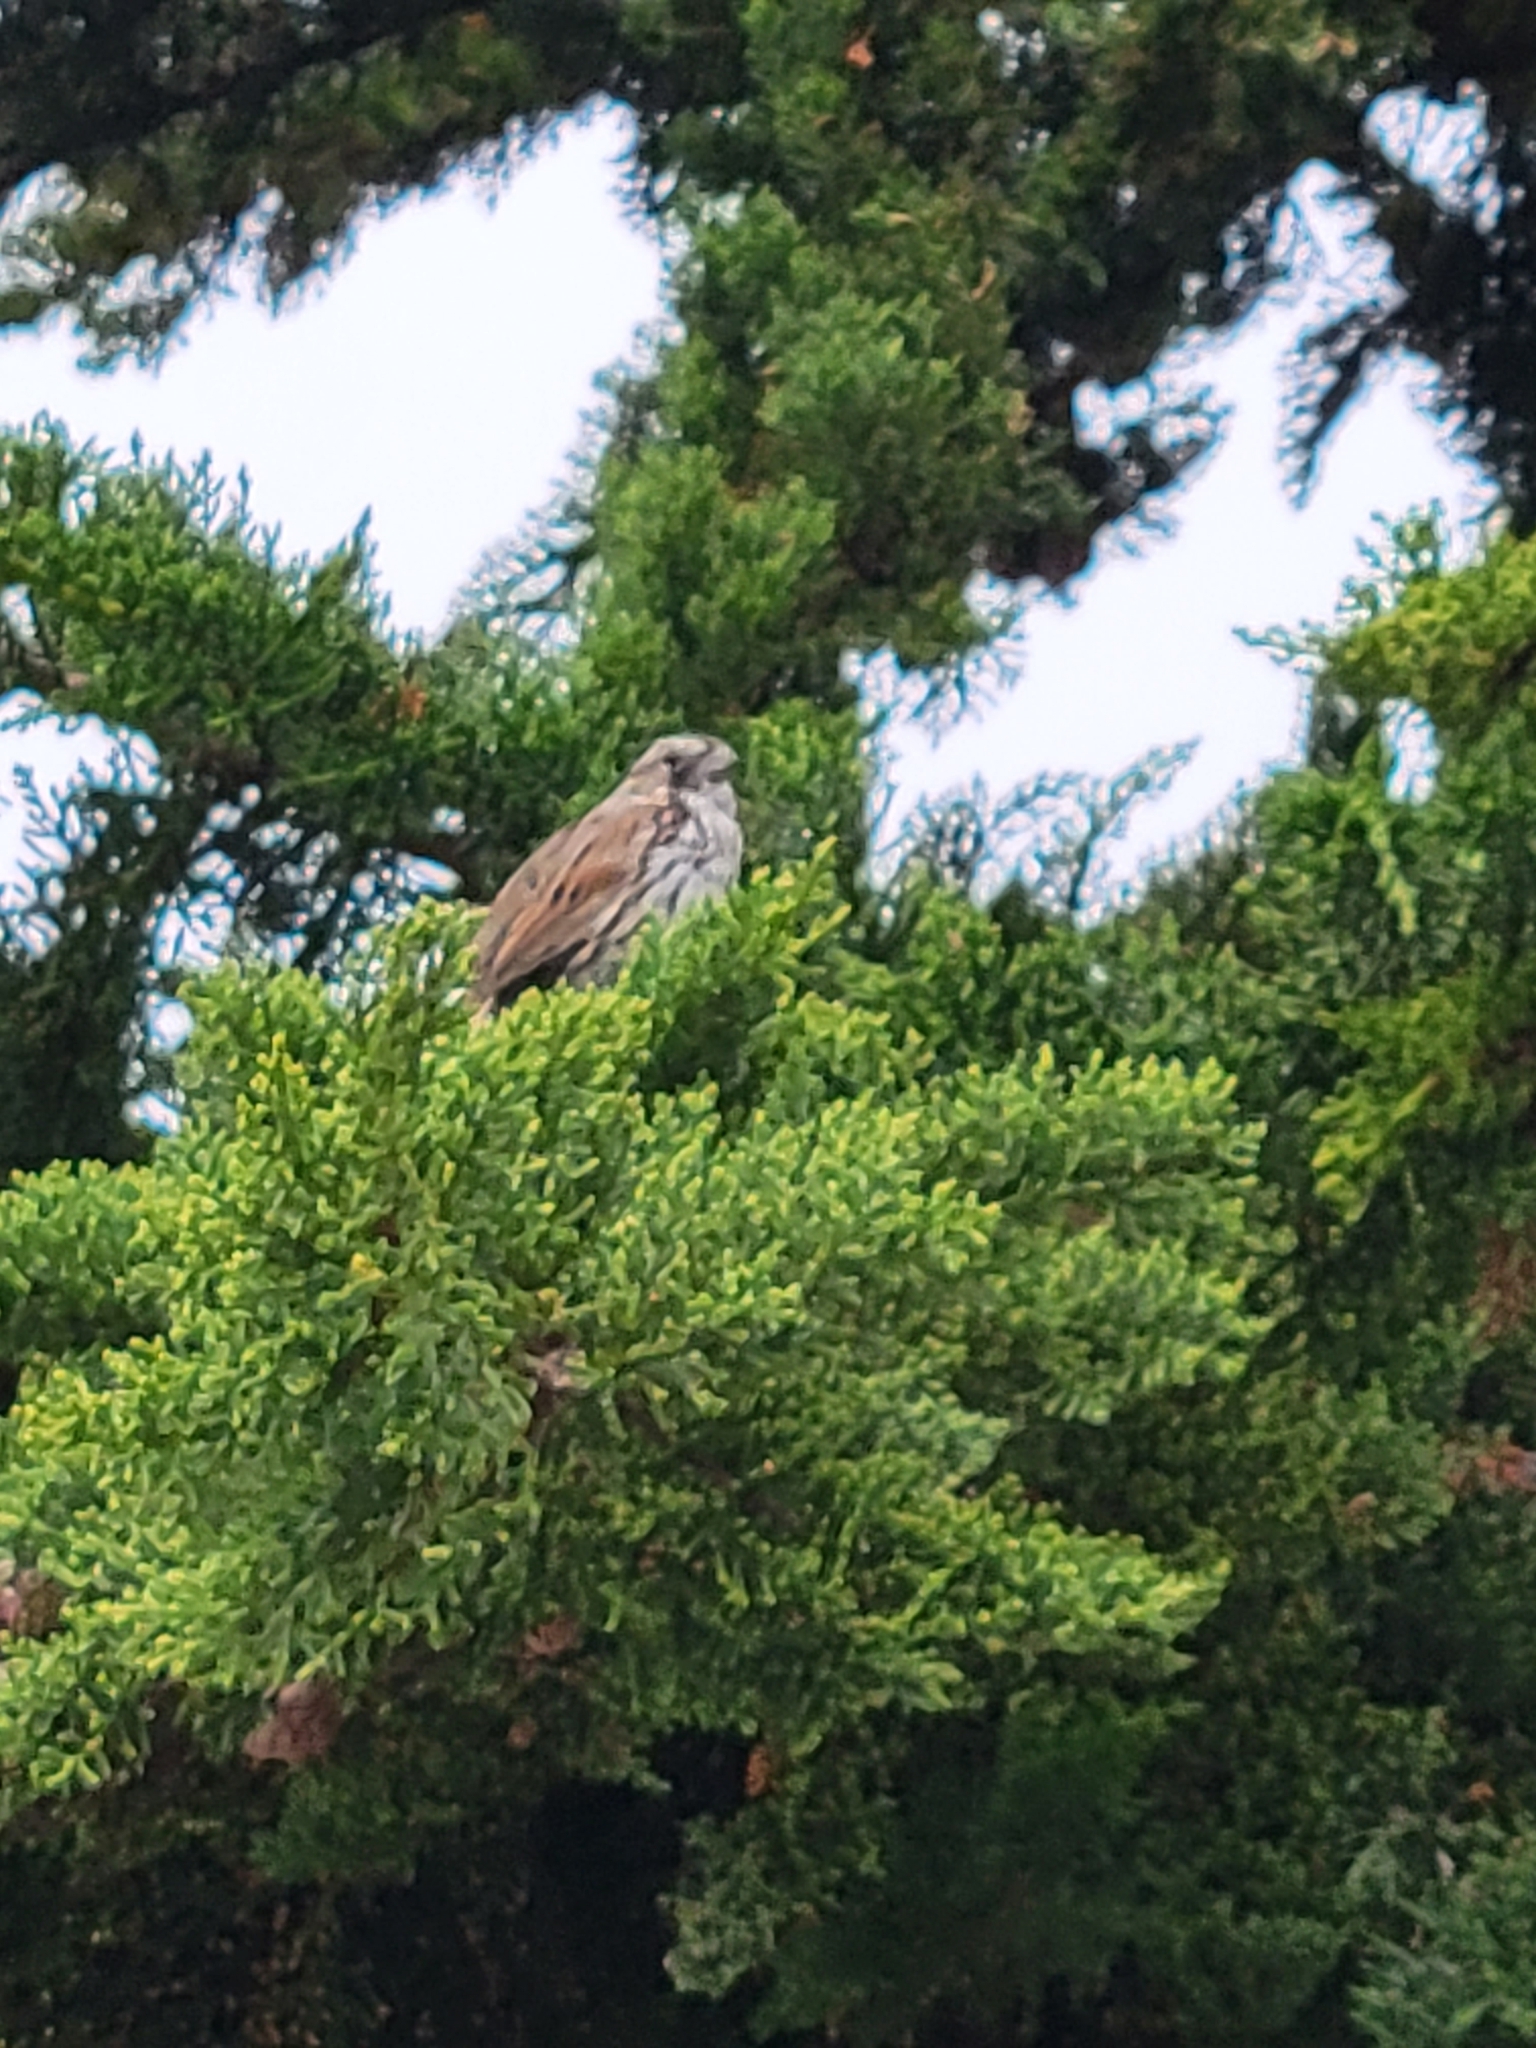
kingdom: Animalia
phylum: Chordata
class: Aves
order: Passeriformes
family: Passerellidae
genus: Melospiza
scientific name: Melospiza melodia
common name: Song sparrow
